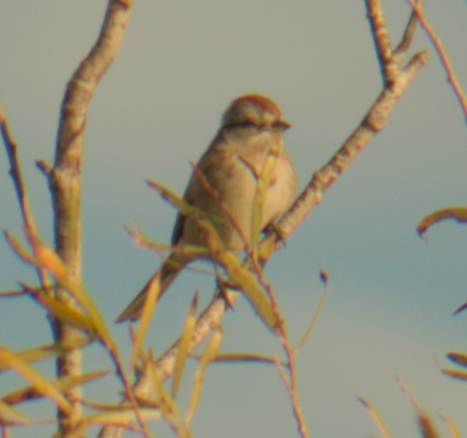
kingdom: Animalia
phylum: Chordata
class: Aves
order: Passeriformes
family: Passerellidae
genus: Spizelloides
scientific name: Spizelloides arborea
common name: American tree sparrow
